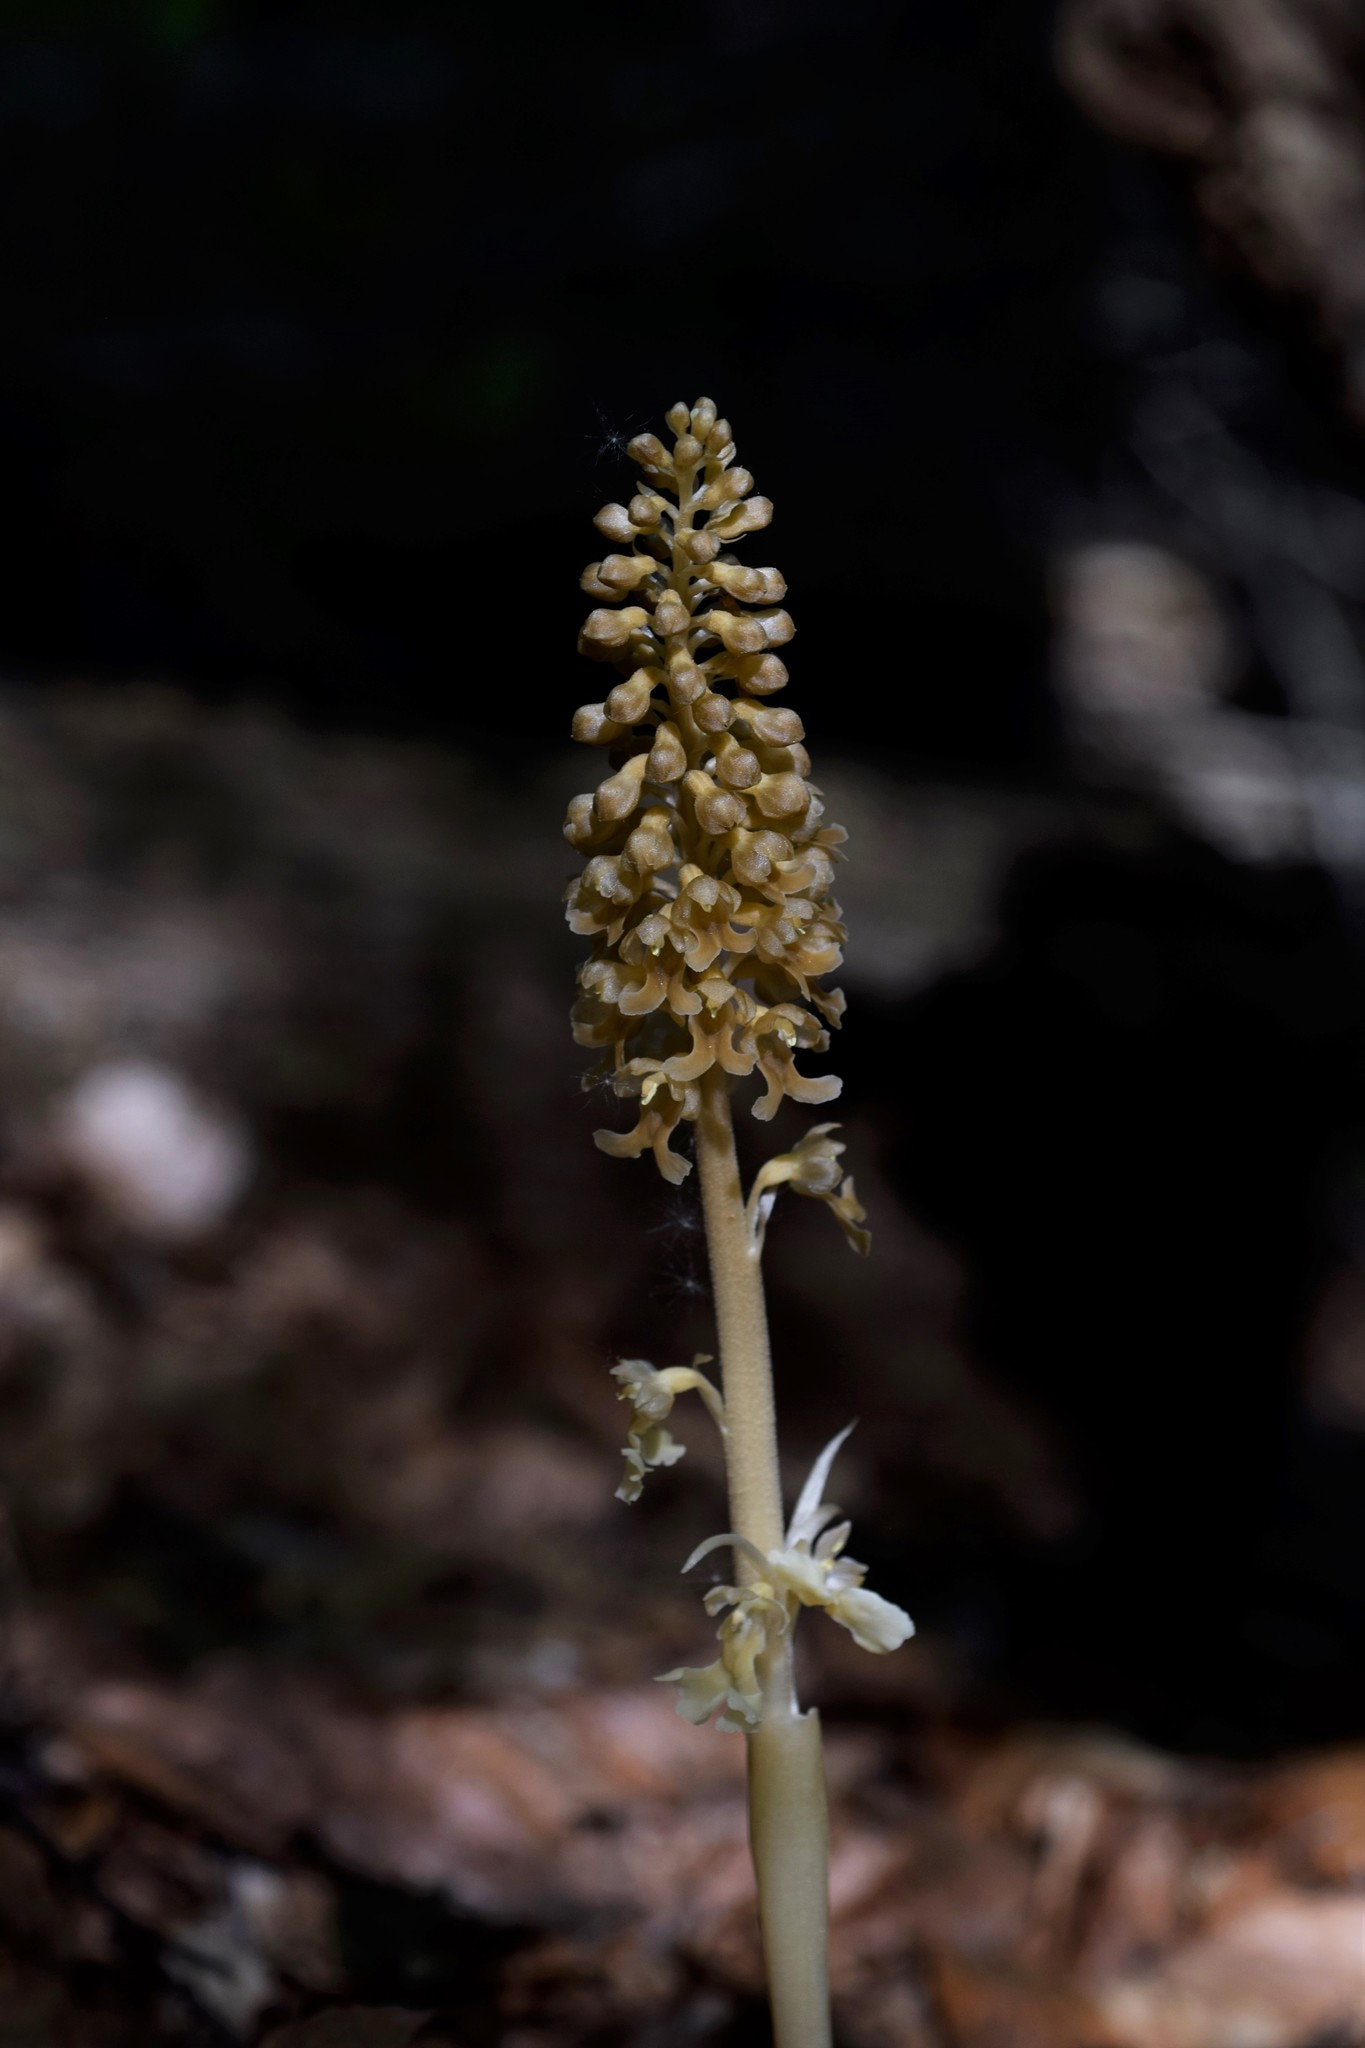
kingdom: Plantae
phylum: Tracheophyta
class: Liliopsida
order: Asparagales
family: Orchidaceae
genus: Neottia
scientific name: Neottia nidus-avis
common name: Bird's-nest orchid
